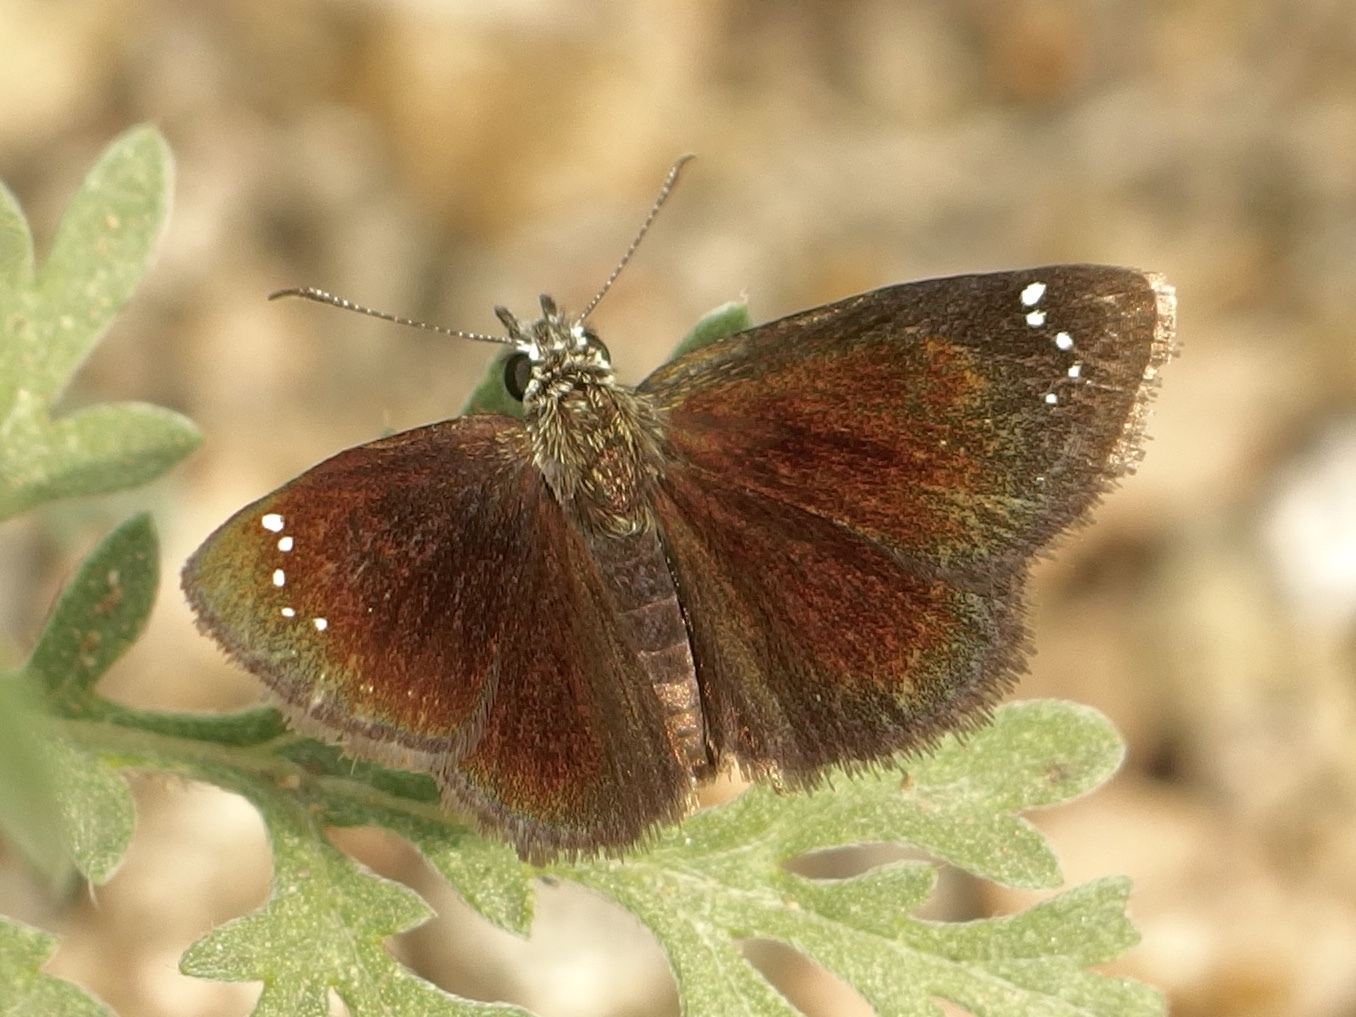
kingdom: Animalia
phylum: Arthropoda
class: Insecta
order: Lepidoptera
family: Hesperiidae
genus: Pholisora
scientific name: Pholisora catullus
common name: Common sootywing
